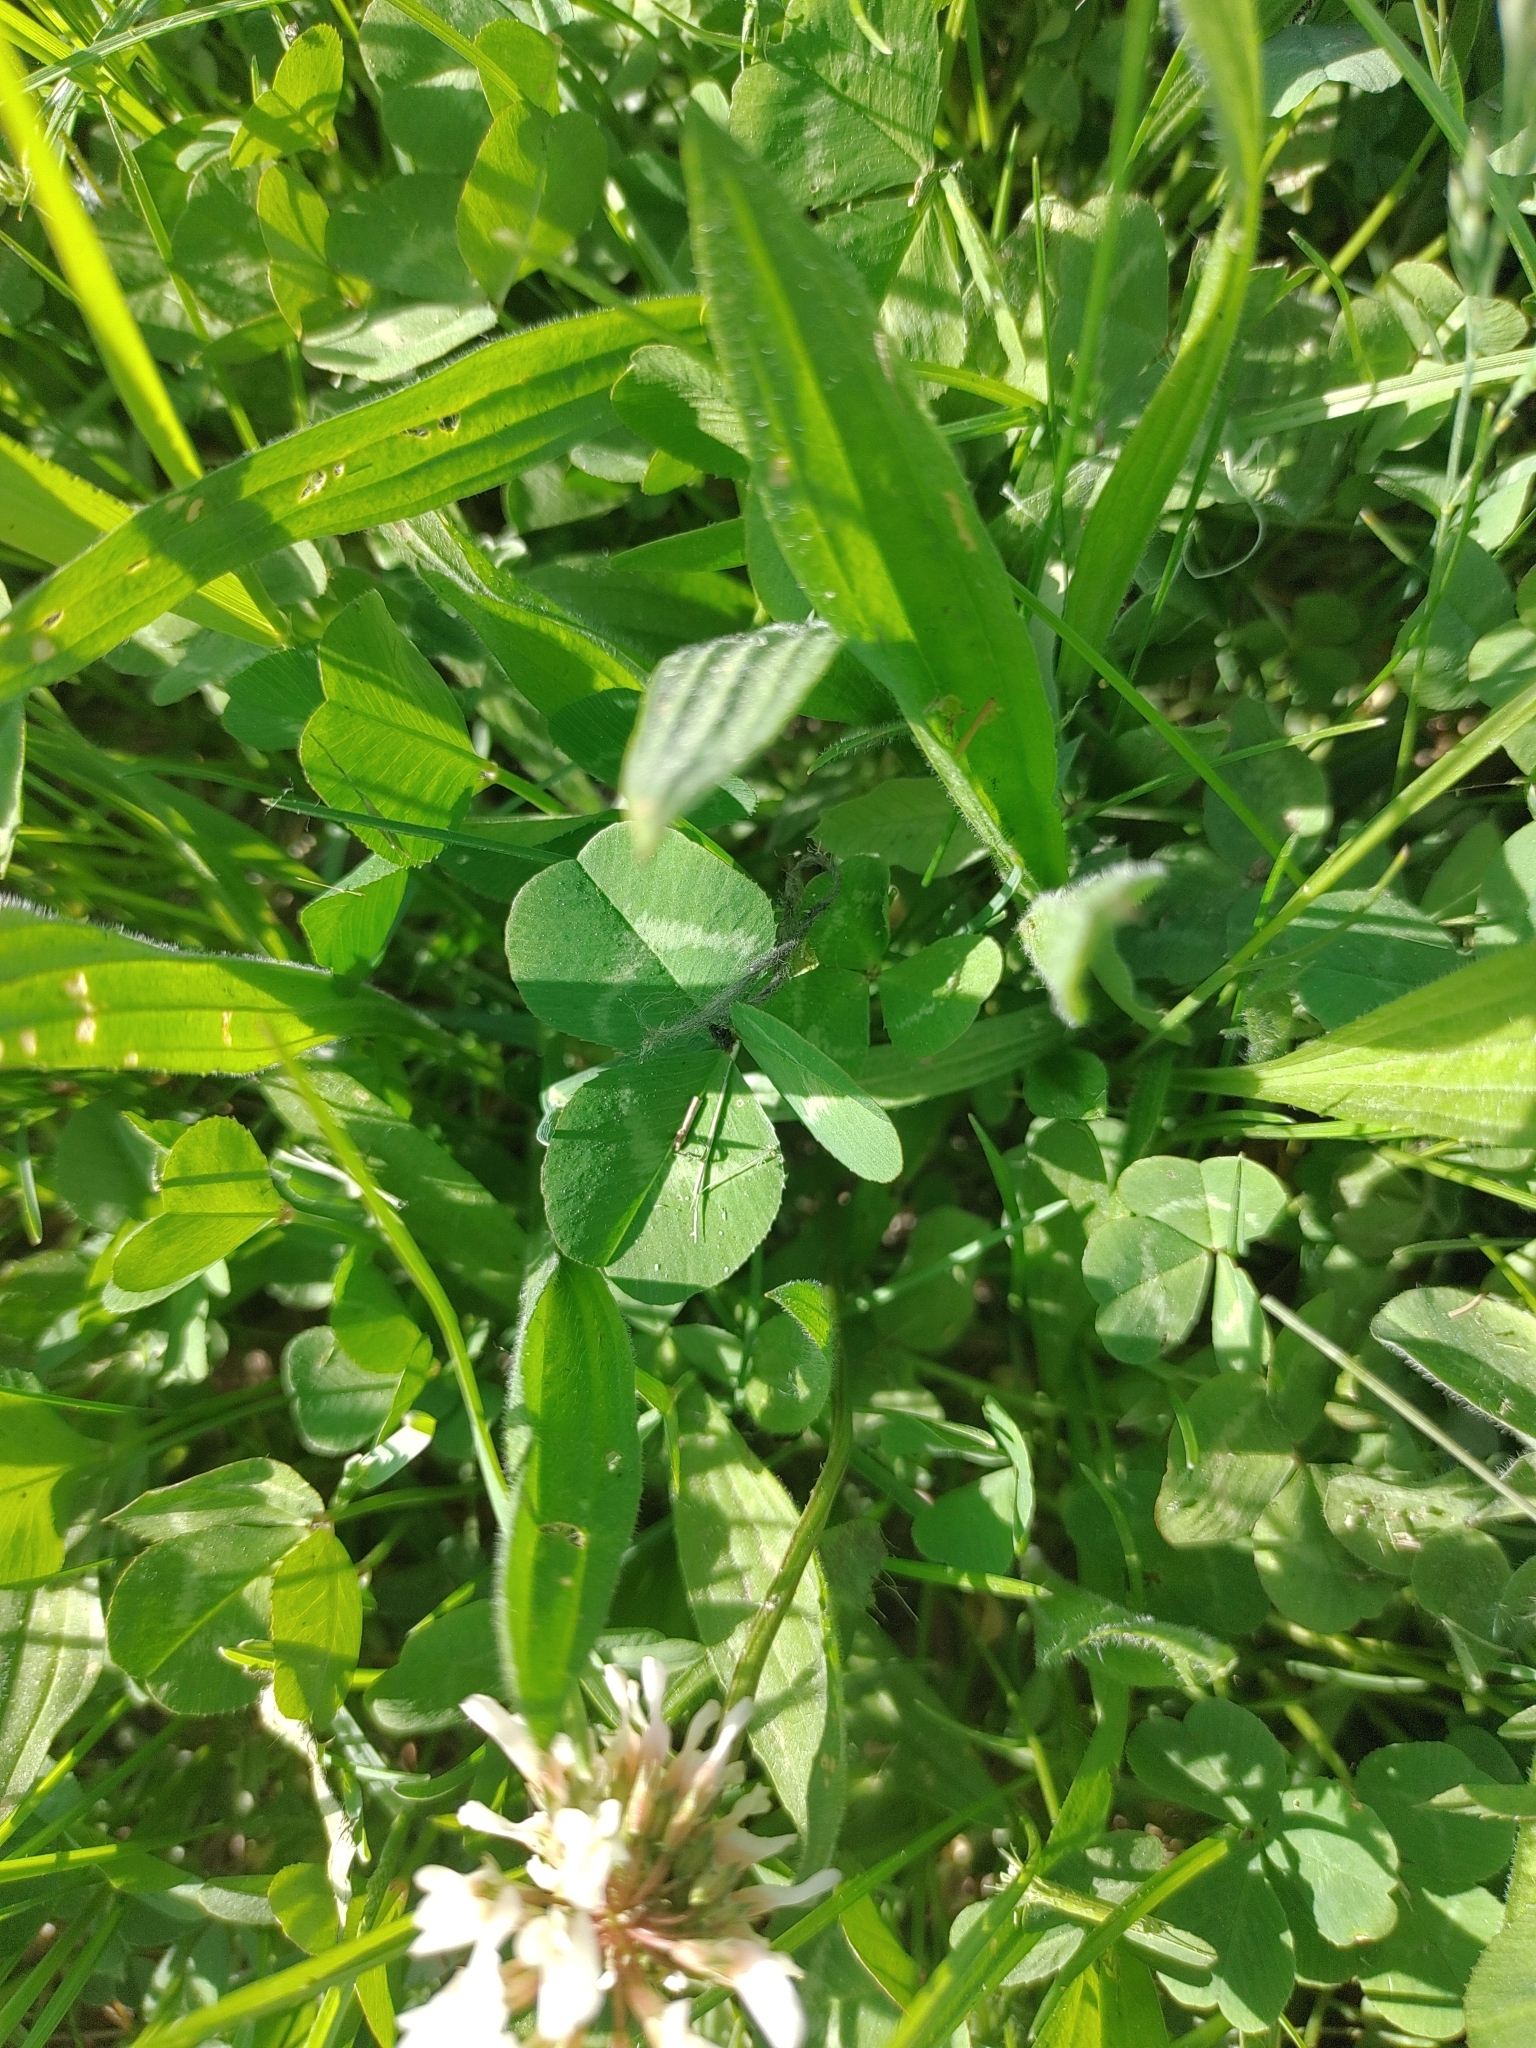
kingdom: Plantae
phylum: Tracheophyta
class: Magnoliopsida
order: Fabales
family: Fabaceae
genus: Trifolium
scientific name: Trifolium repens
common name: White clover
